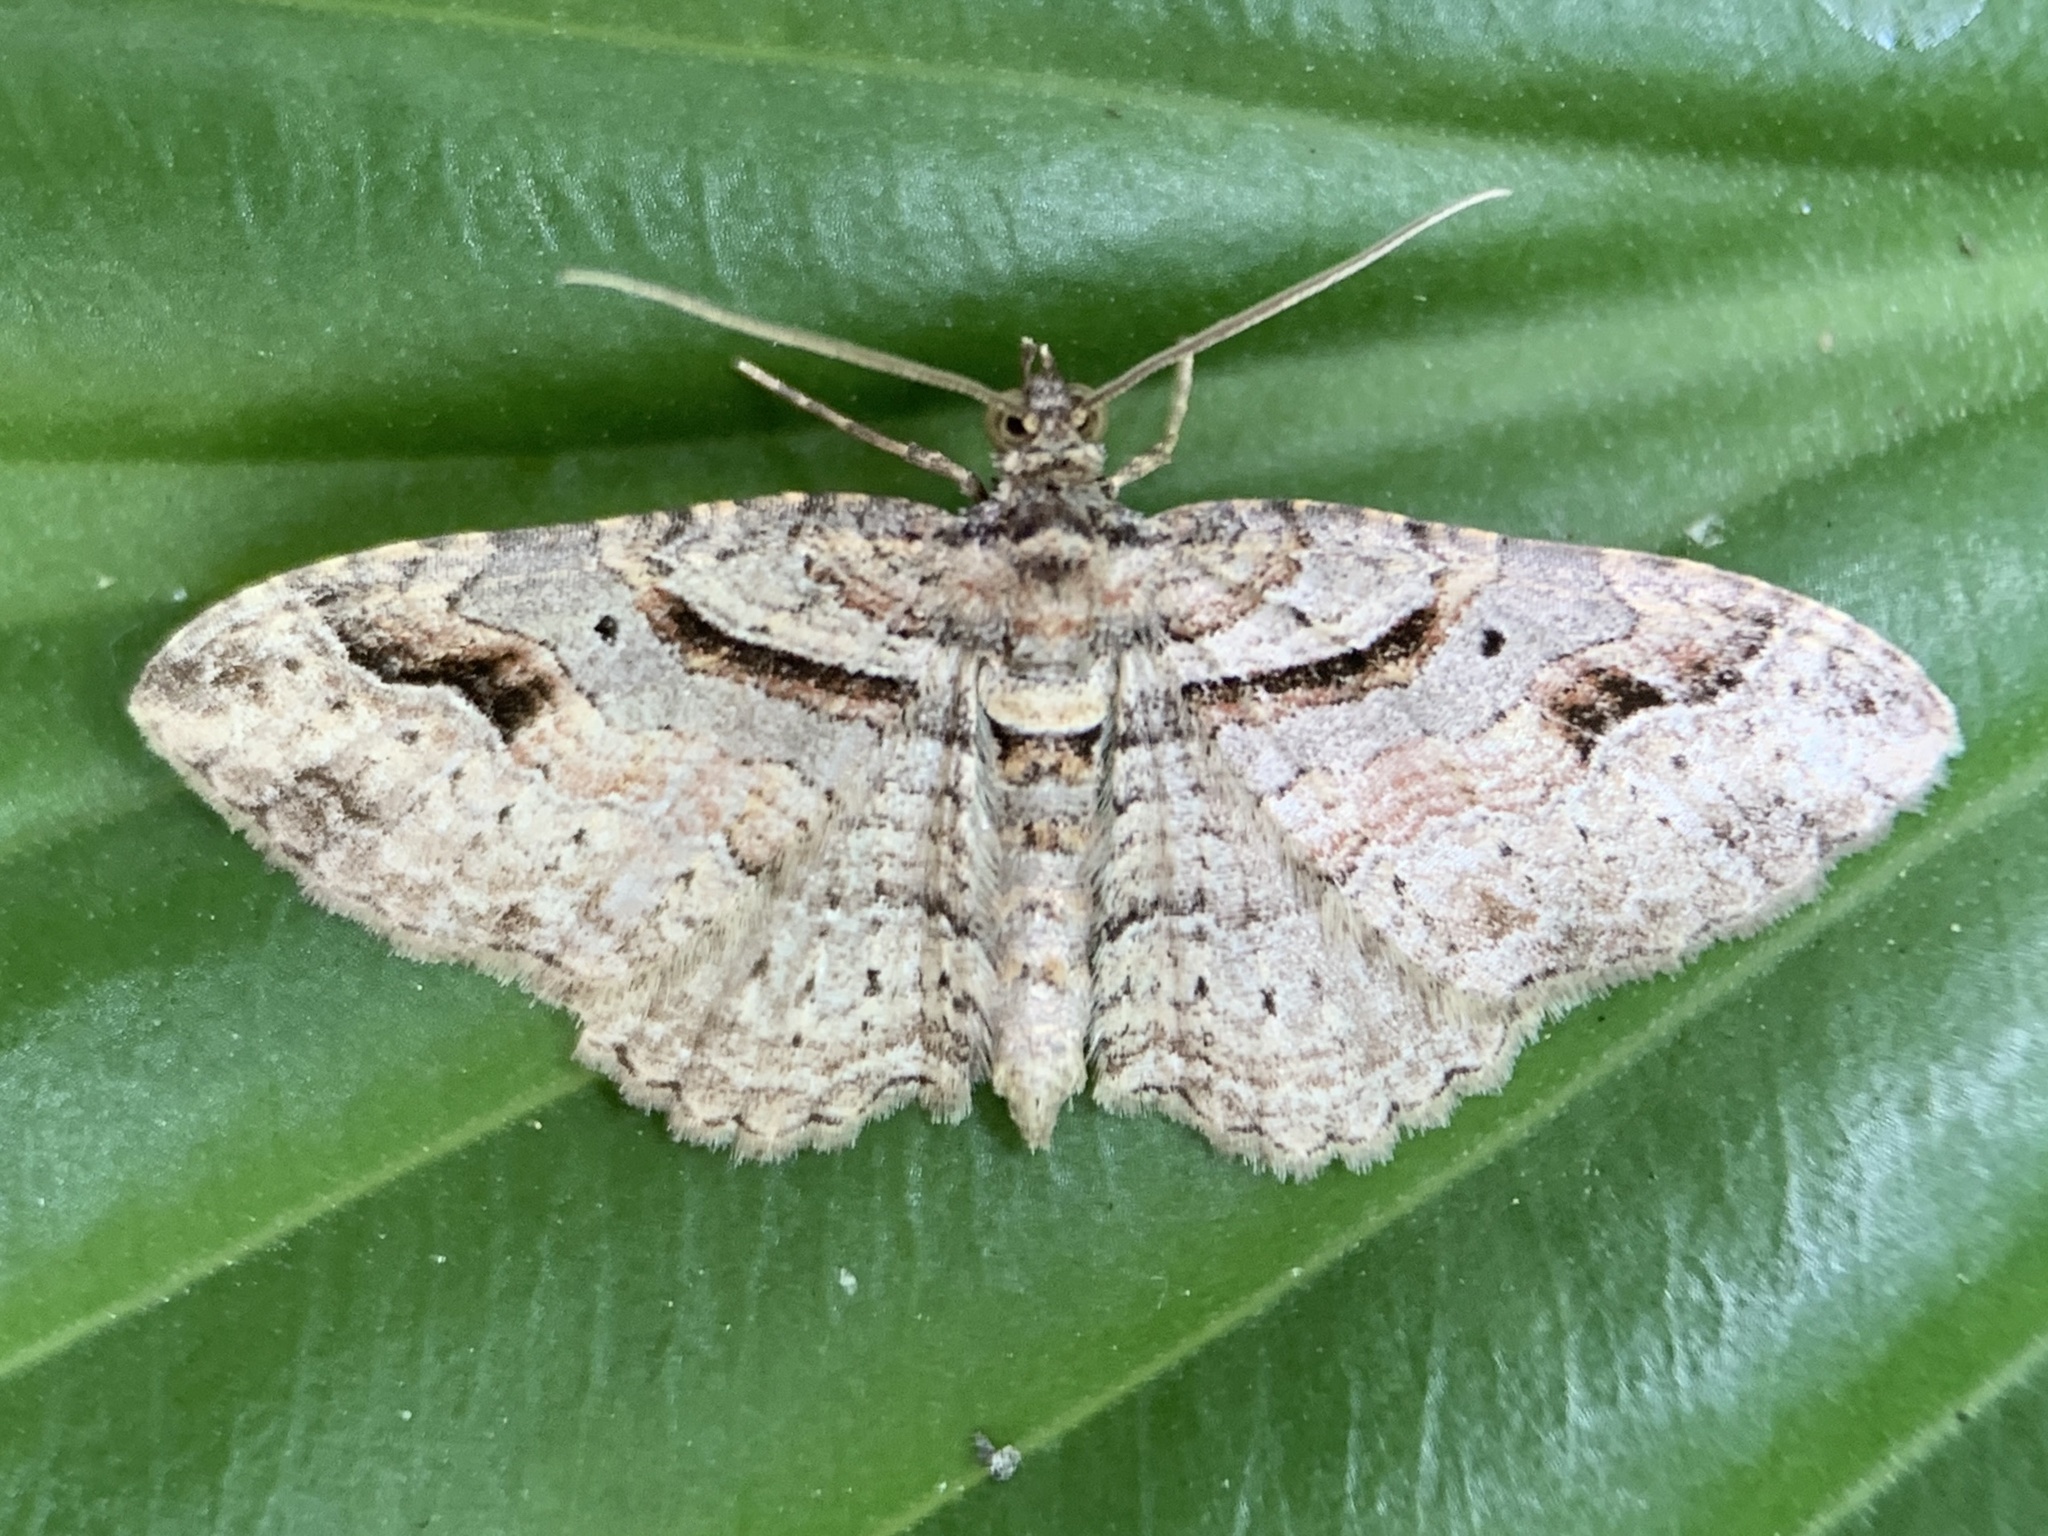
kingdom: Animalia
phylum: Arthropoda
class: Insecta
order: Lepidoptera
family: Geometridae
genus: Costaconvexa
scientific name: Costaconvexa centrostrigaria
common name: Bent-line carpet
